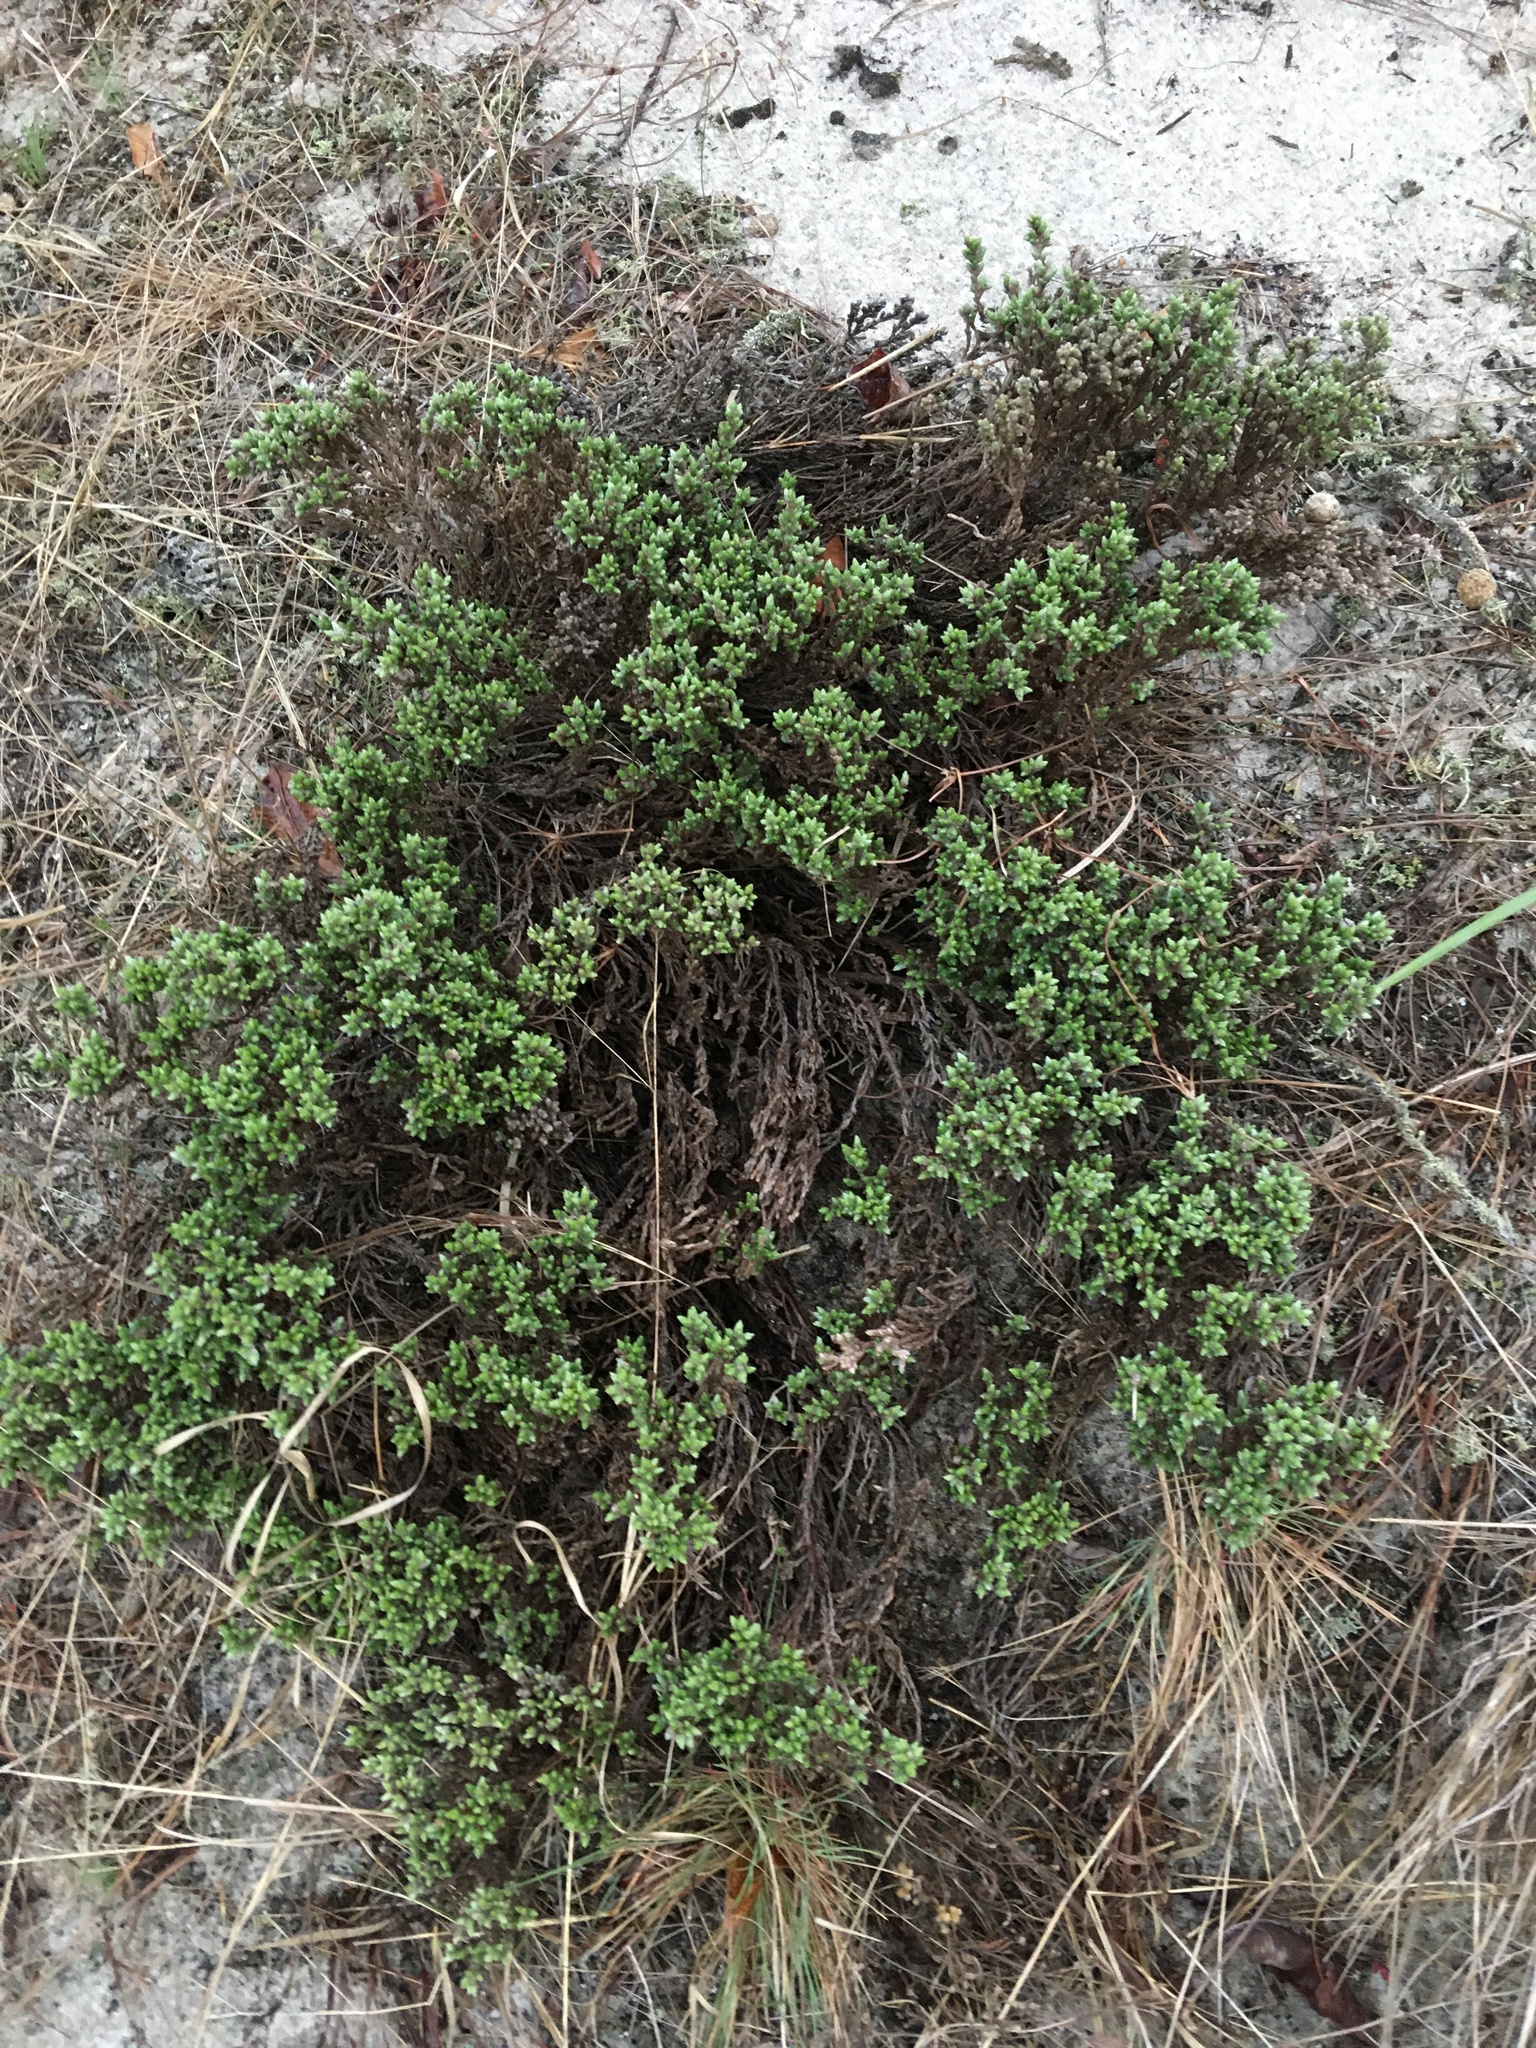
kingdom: Plantae
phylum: Tracheophyta
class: Magnoliopsida
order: Malvales
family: Cistaceae
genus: Hudsonia
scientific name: Hudsonia tomentosa
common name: Beach-heath
